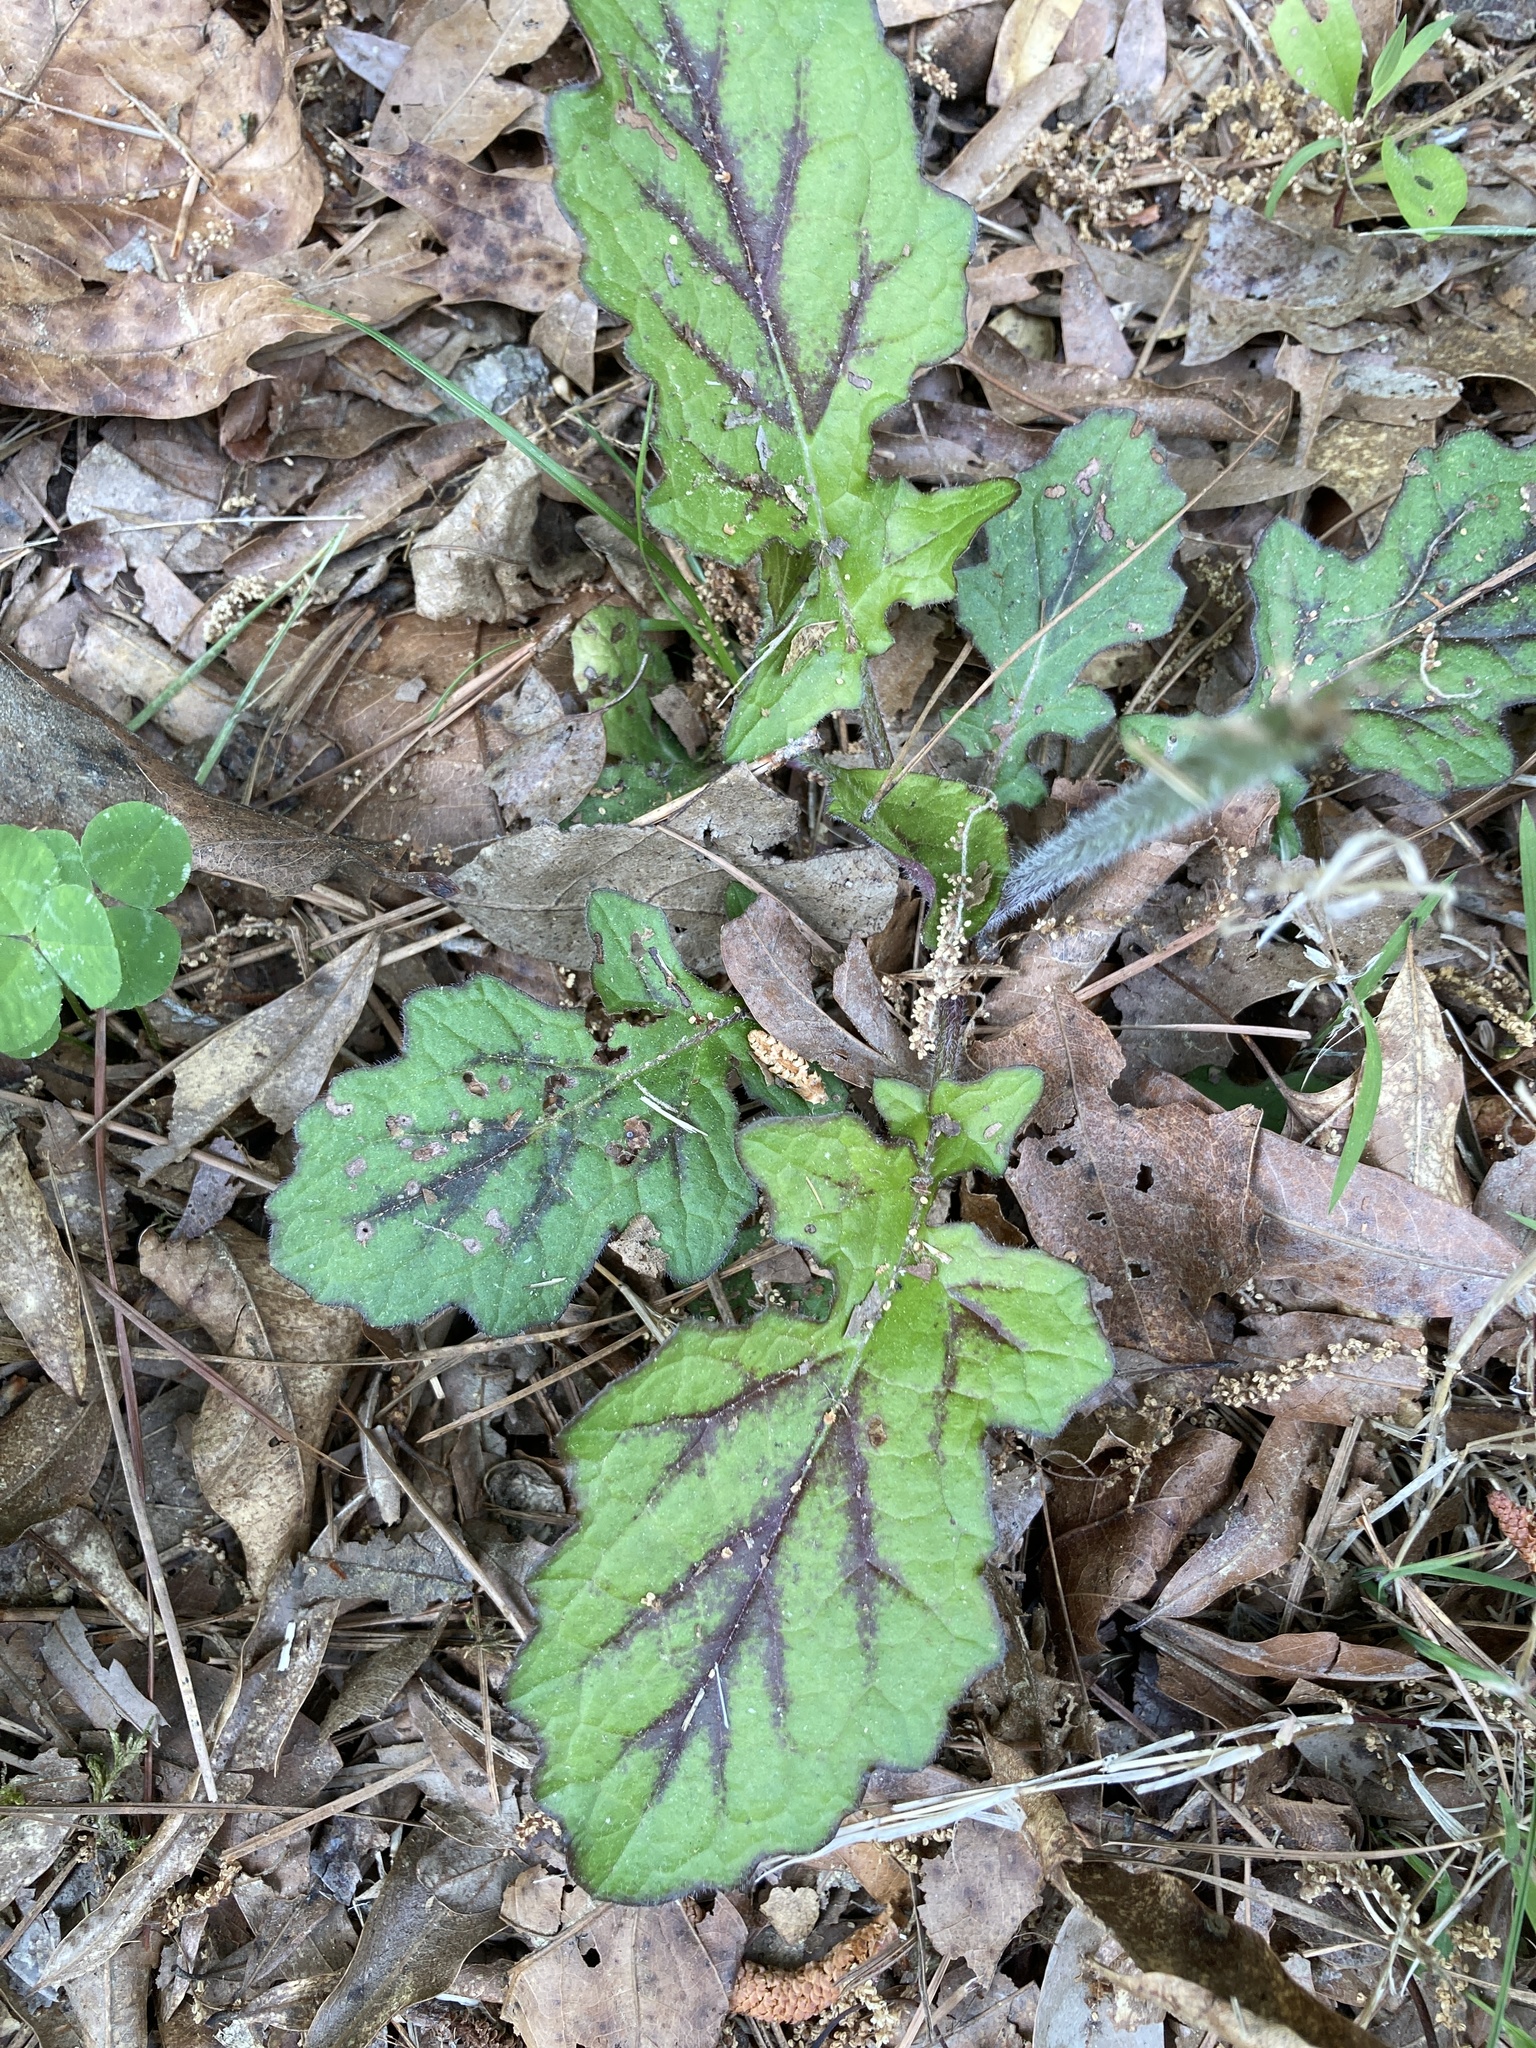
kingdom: Plantae
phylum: Tracheophyta
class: Magnoliopsida
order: Lamiales
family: Lamiaceae
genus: Salvia
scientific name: Salvia lyrata
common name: Cancerweed
